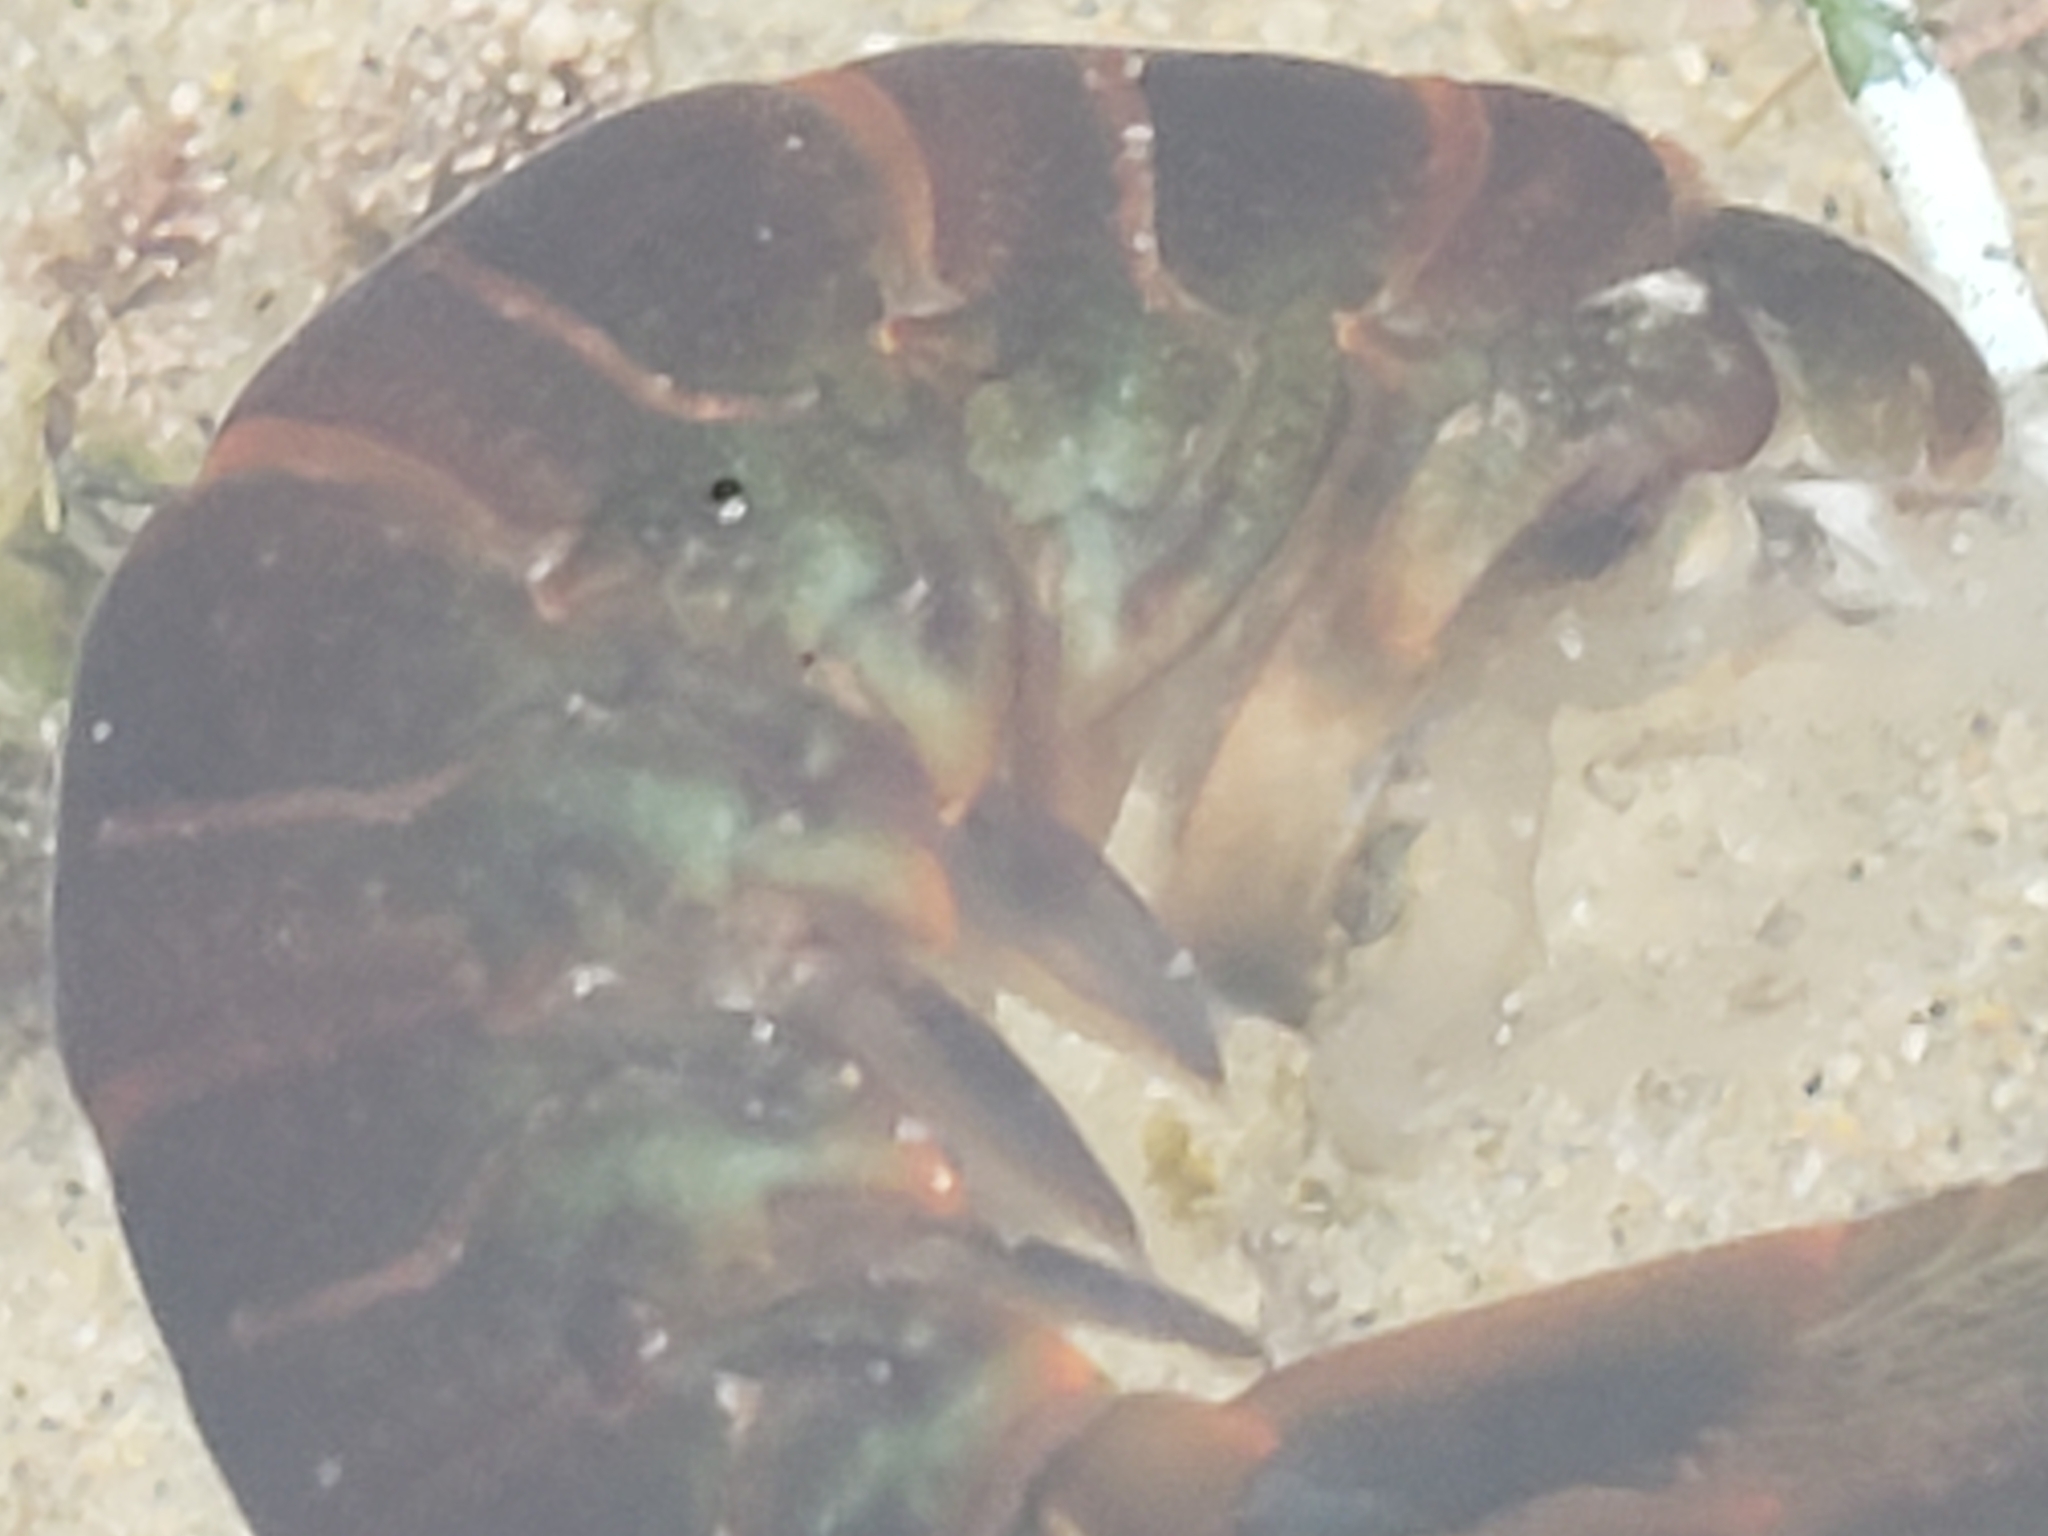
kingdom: Animalia
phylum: Arthropoda
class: Malacostraca
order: Decapoda
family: Palinuridae
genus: Panulirus
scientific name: Panulirus interruptus
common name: California spiny lobster
